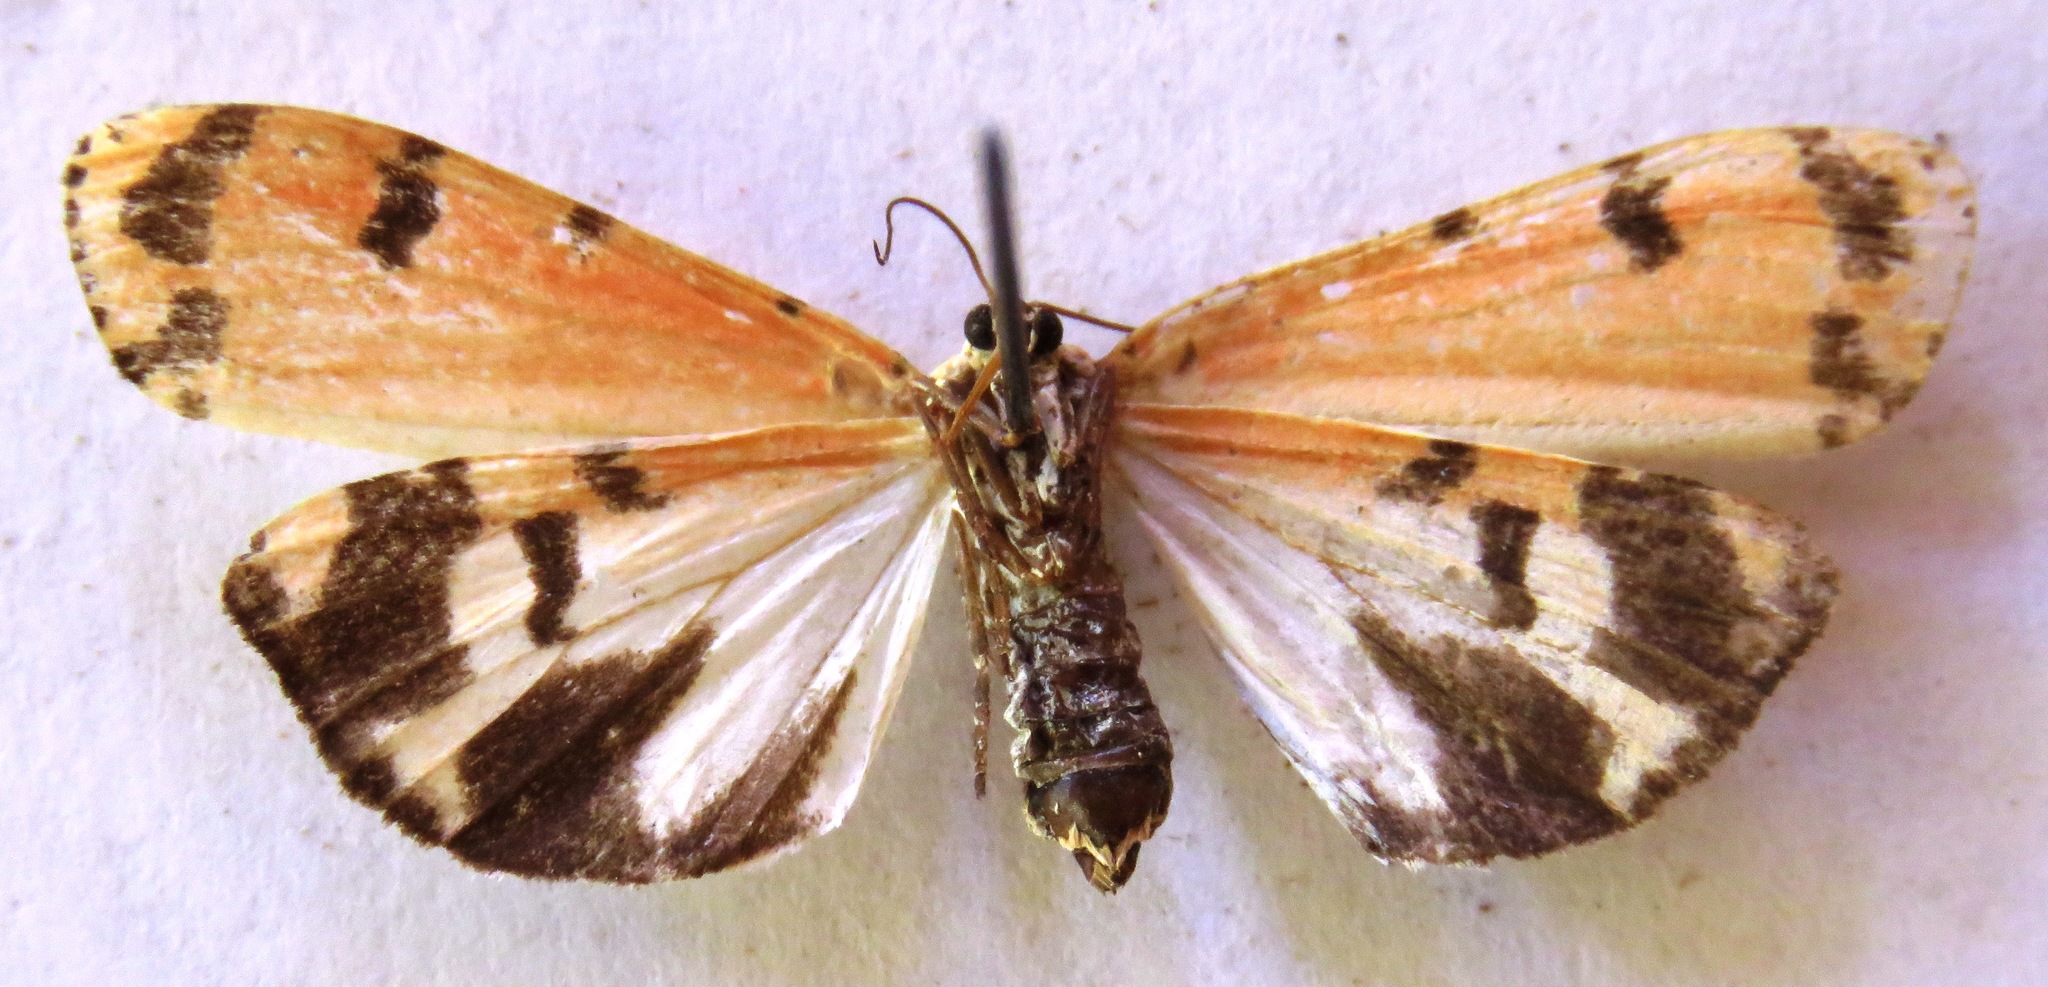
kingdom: Animalia
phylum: Arthropoda
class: Insecta
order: Lepidoptera
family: Erebidae
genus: Utetheisa
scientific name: Utetheisa ornatrix
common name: Beautiful utetheisa
